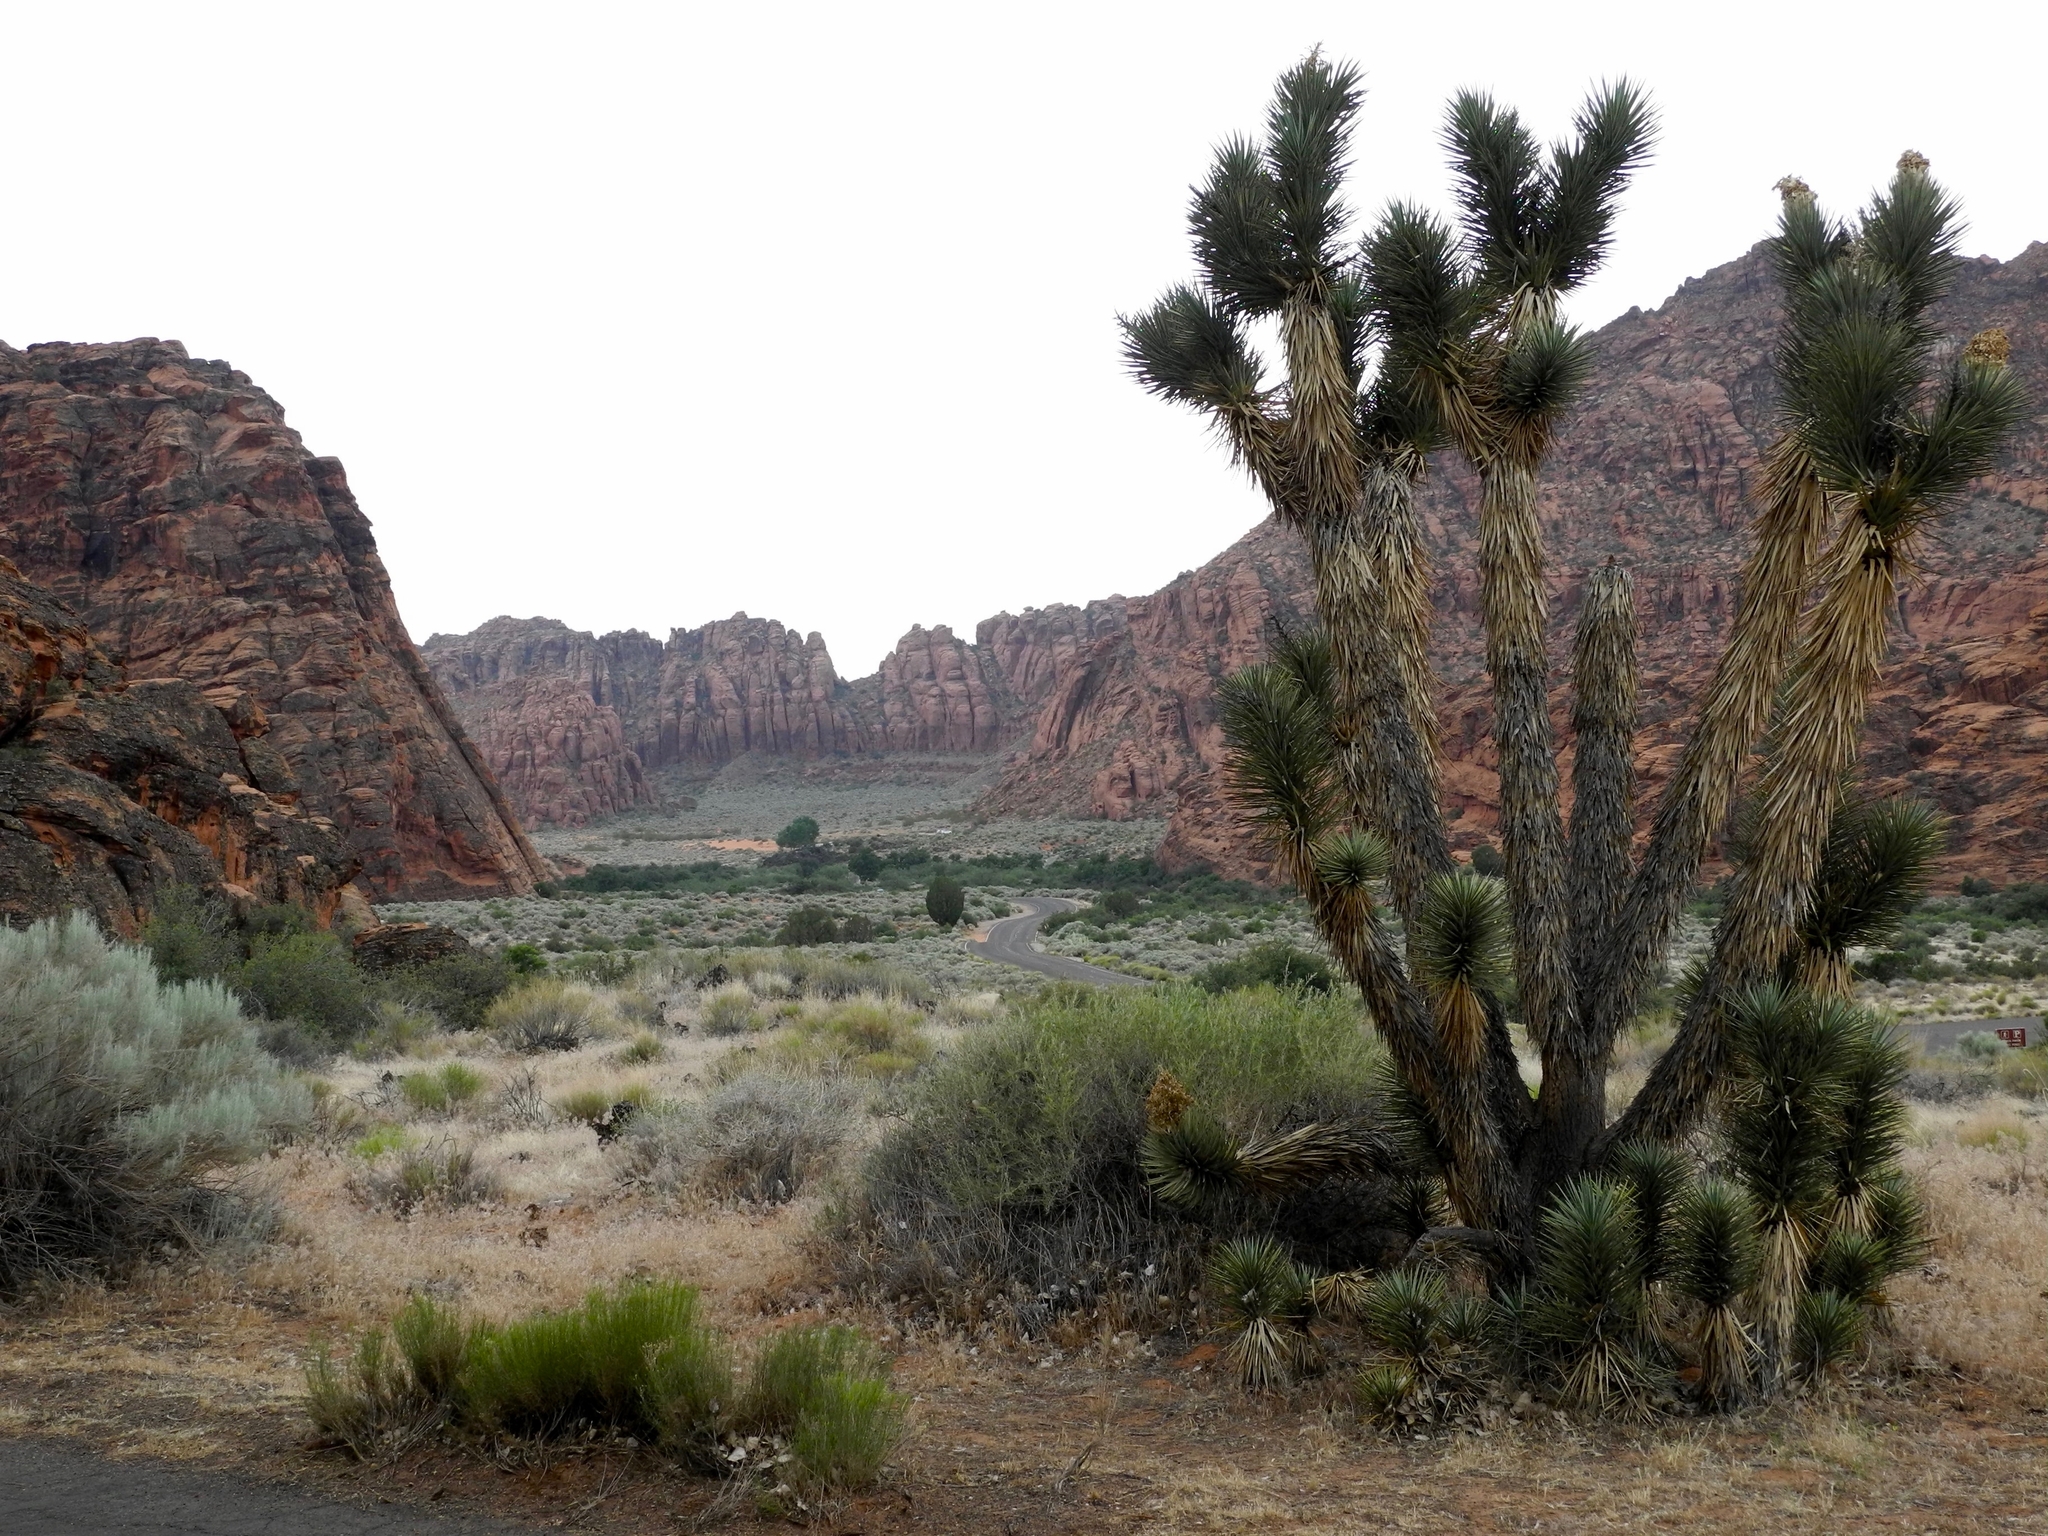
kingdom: Plantae
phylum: Tracheophyta
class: Liliopsida
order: Asparagales
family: Asparagaceae
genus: Yucca
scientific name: Yucca brevifolia
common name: Joshua tree
